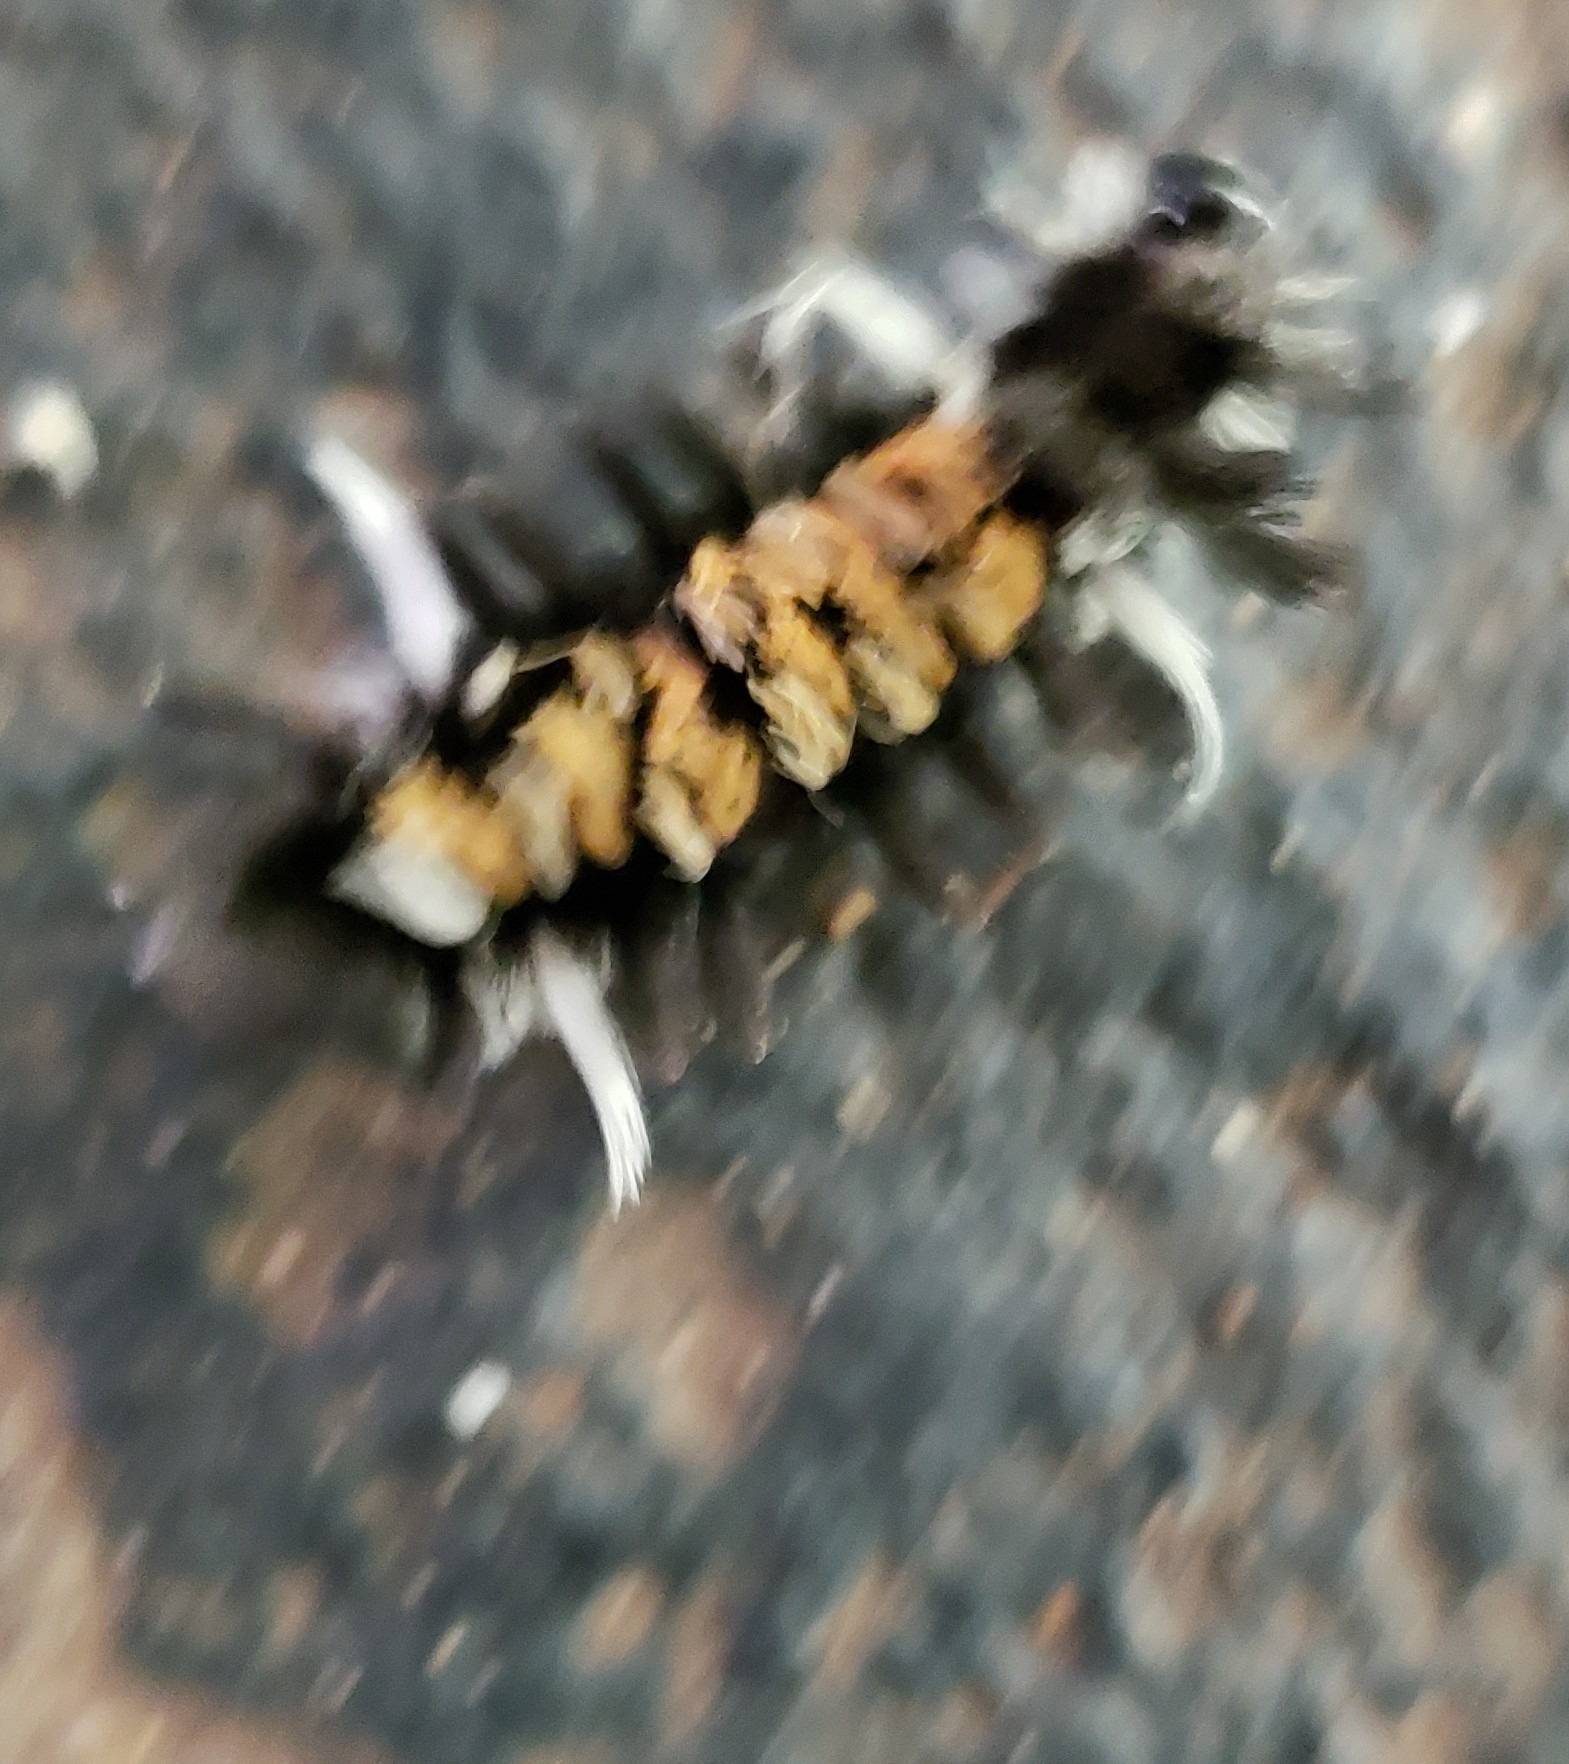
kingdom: Animalia
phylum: Arthropoda
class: Insecta
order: Lepidoptera
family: Erebidae
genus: Euchaetes
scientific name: Euchaetes egle
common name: Milkweed tussock moth
